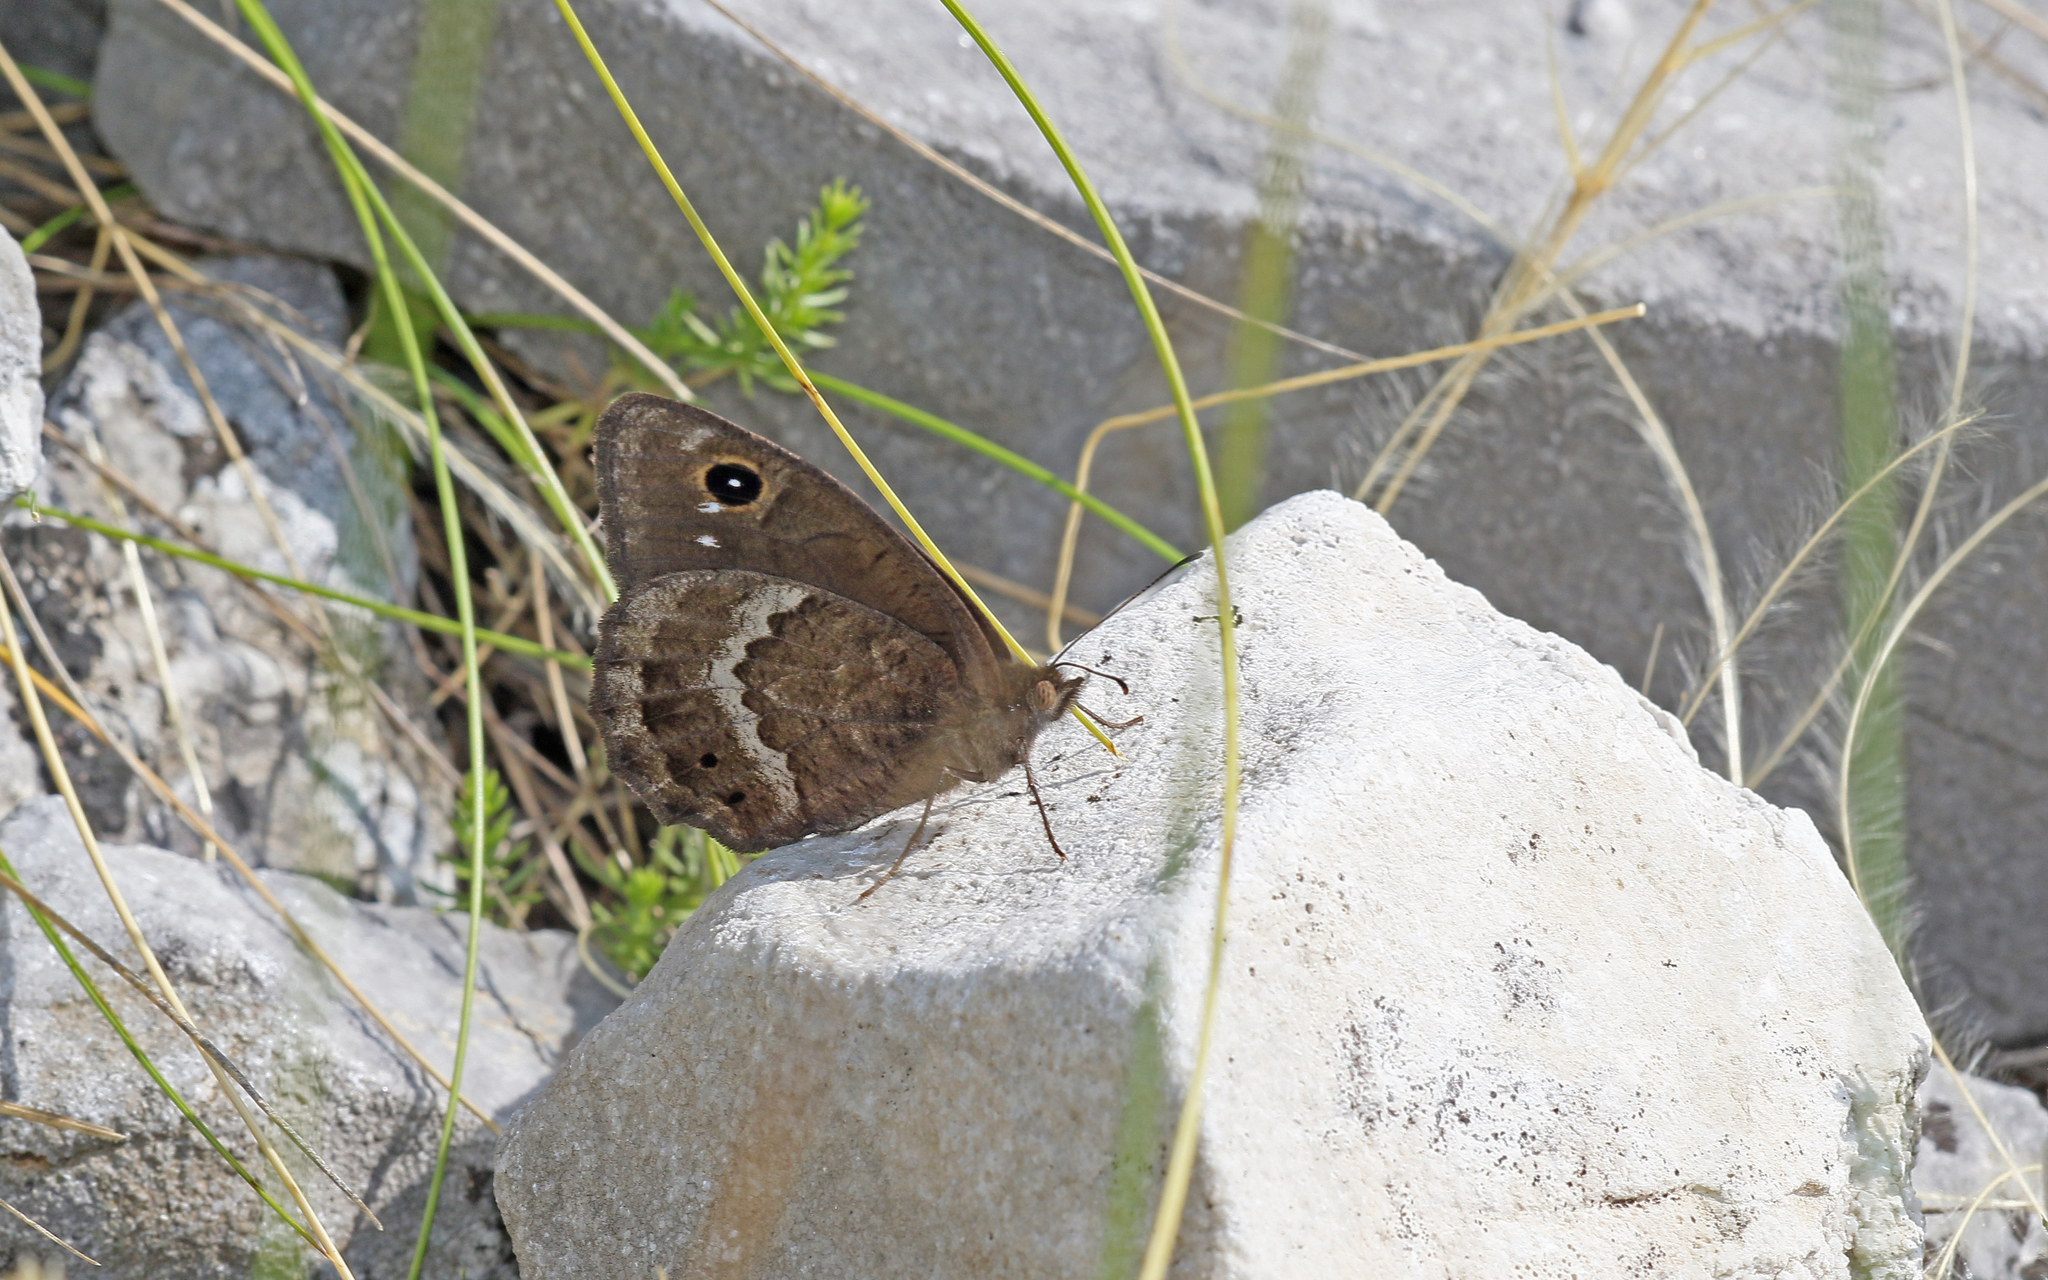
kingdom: Animalia
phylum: Arthropoda
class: Insecta
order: Lepidoptera
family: Nymphalidae
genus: Satyrus
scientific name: Satyrus ferula
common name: Great sooty satyr
